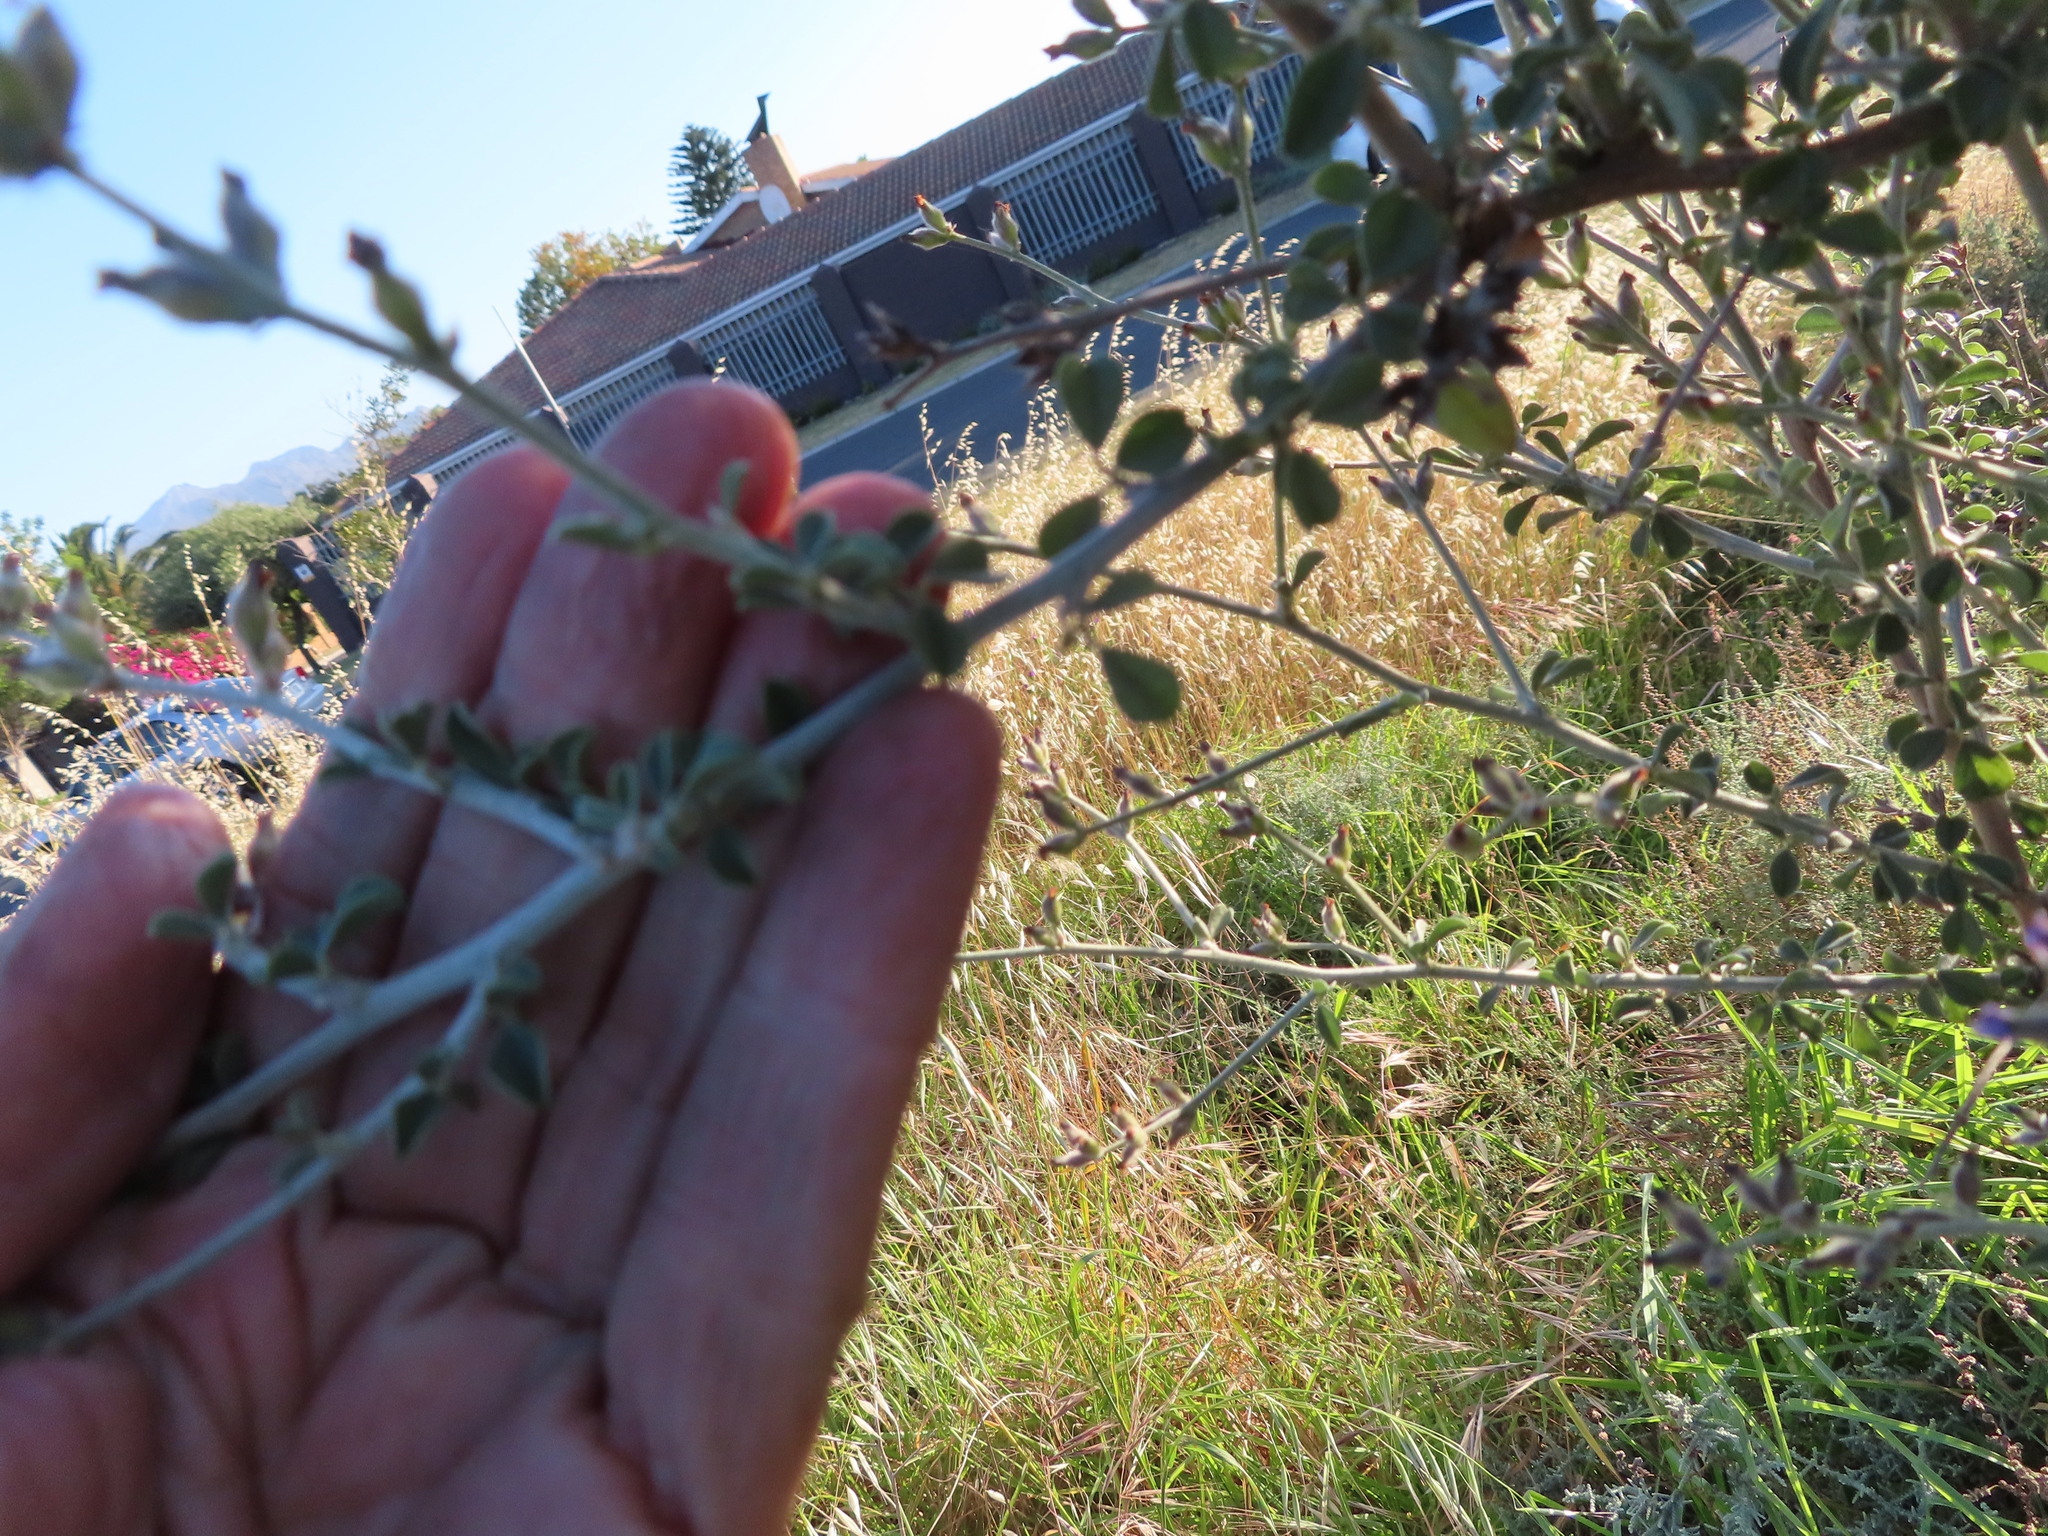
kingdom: Plantae
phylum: Tracheophyta
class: Magnoliopsida
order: Fabales
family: Fabaceae
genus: Psoralea
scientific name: Psoralea hirta
